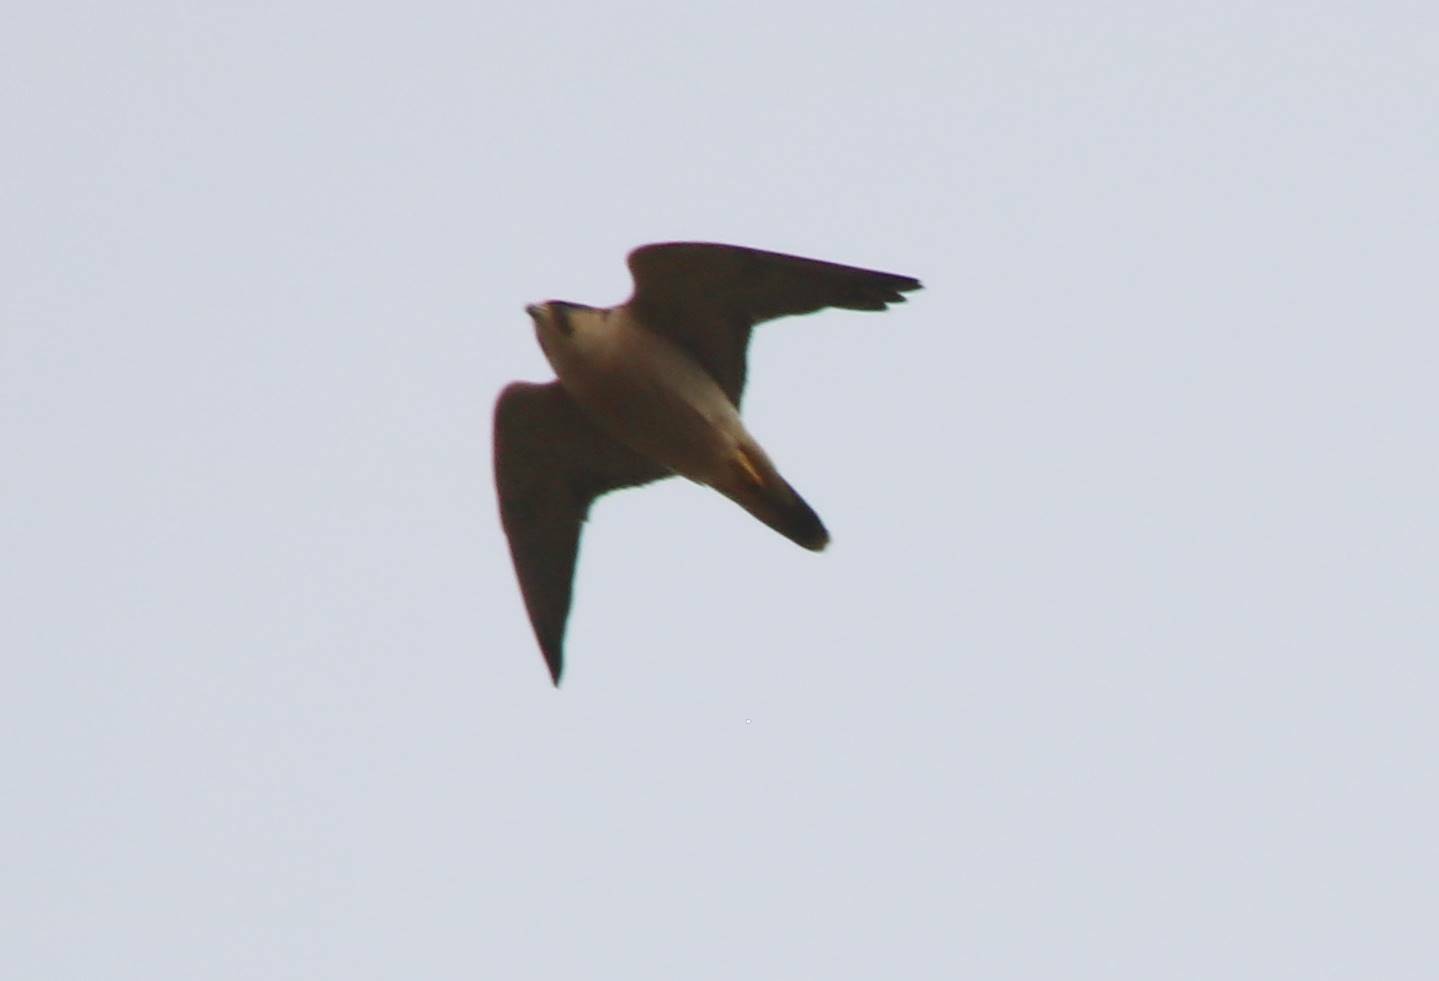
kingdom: Animalia
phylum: Chordata
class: Aves
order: Falconiformes
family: Falconidae
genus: Falco
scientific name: Falco peregrinus
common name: Peregrine falcon
